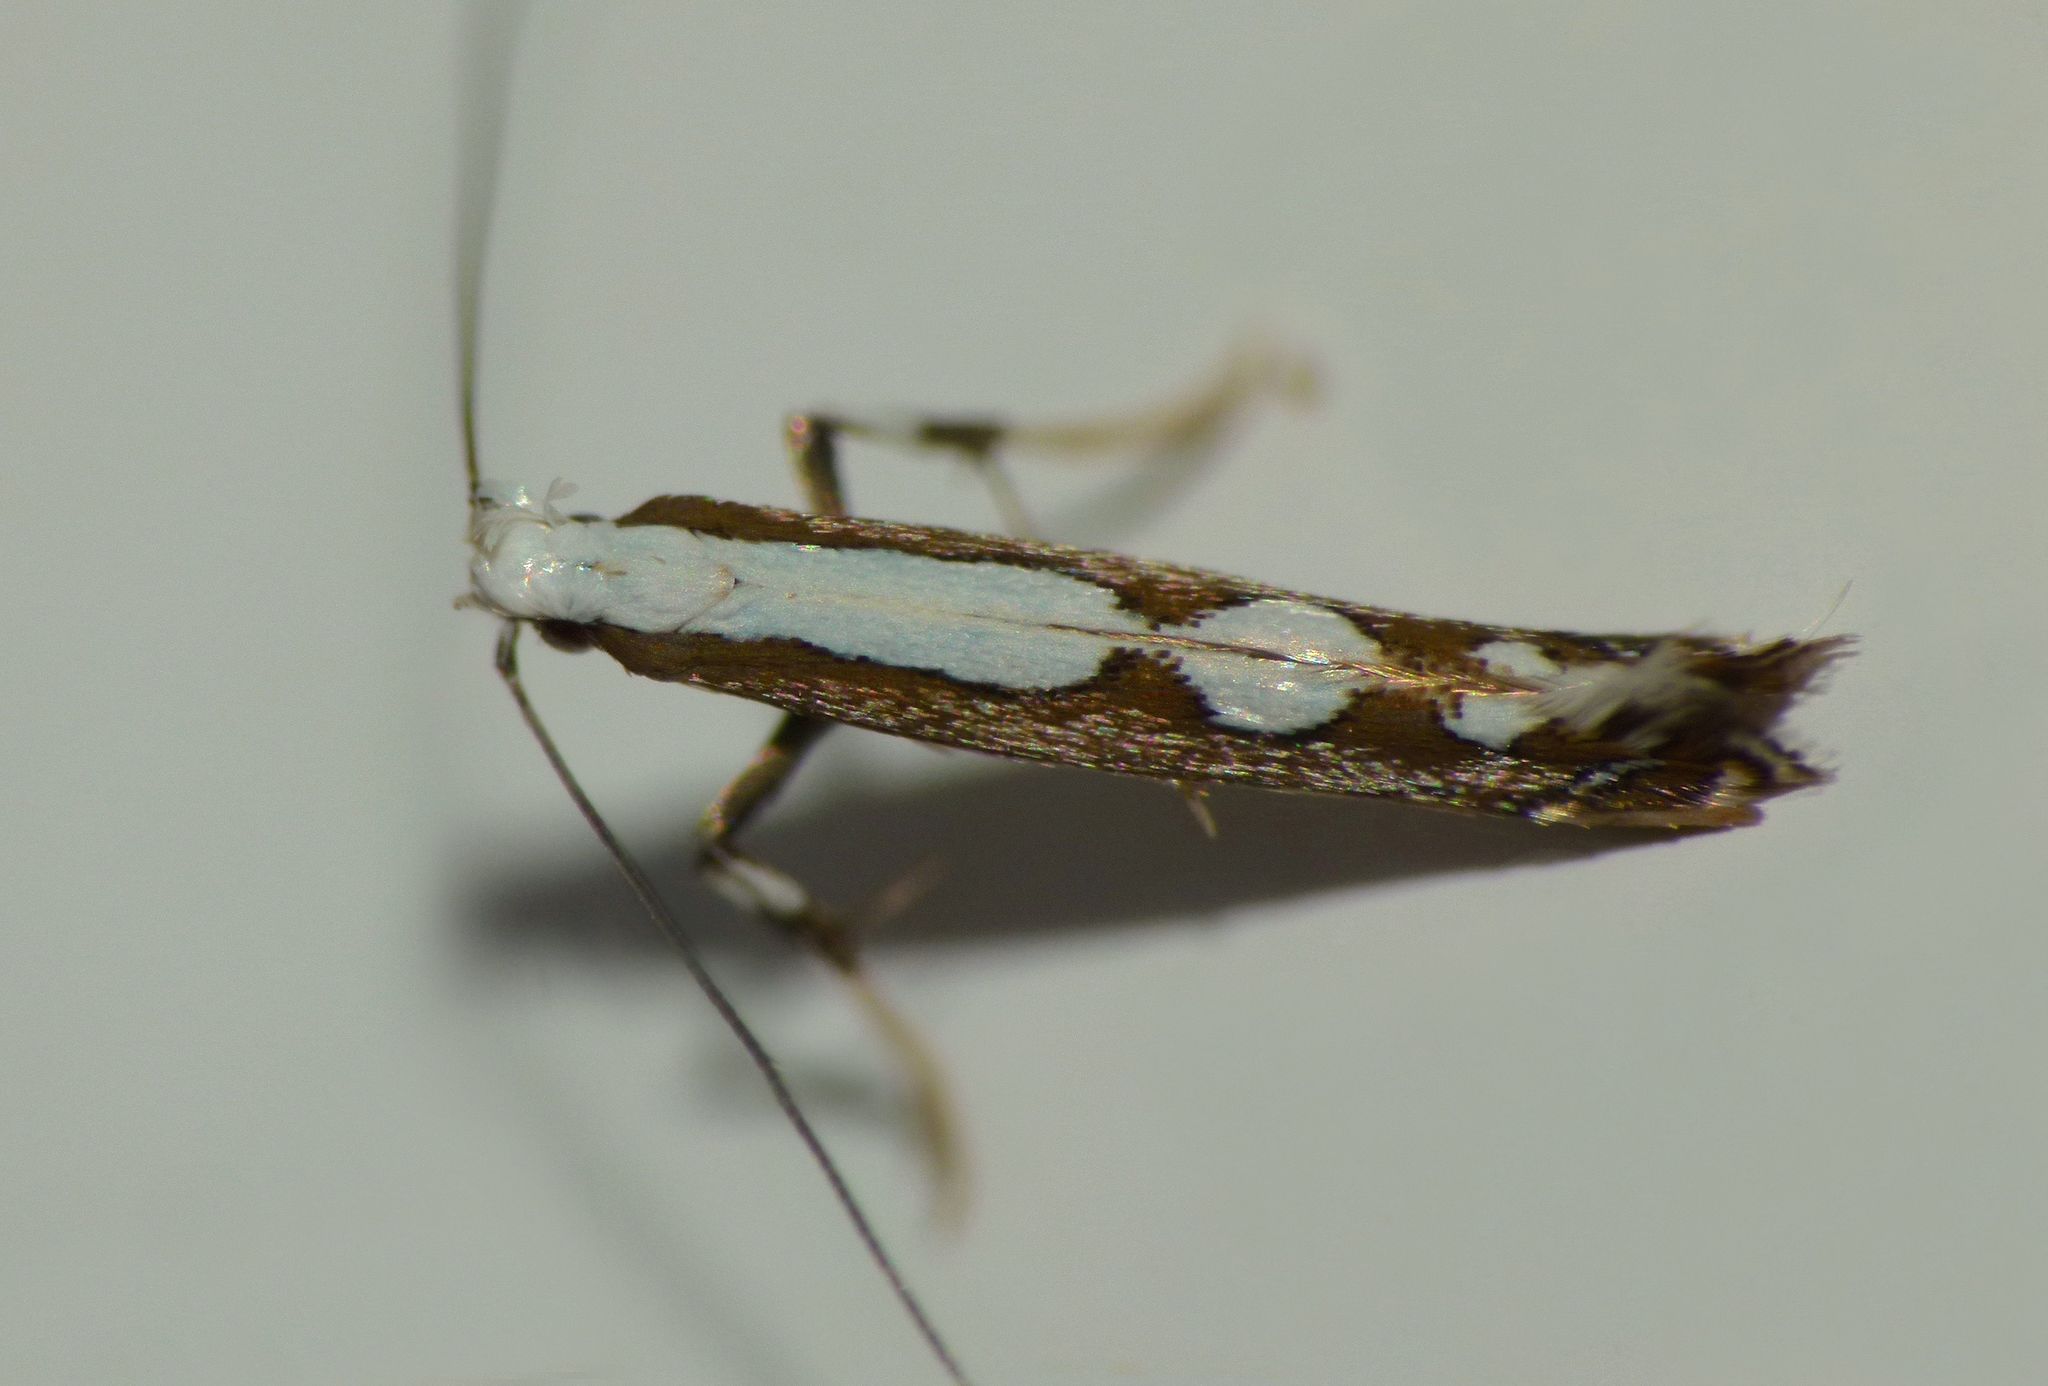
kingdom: Animalia
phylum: Arthropoda
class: Insecta
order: Lepidoptera
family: Gracillariidae
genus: Dialectica
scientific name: Dialectica scalariella
